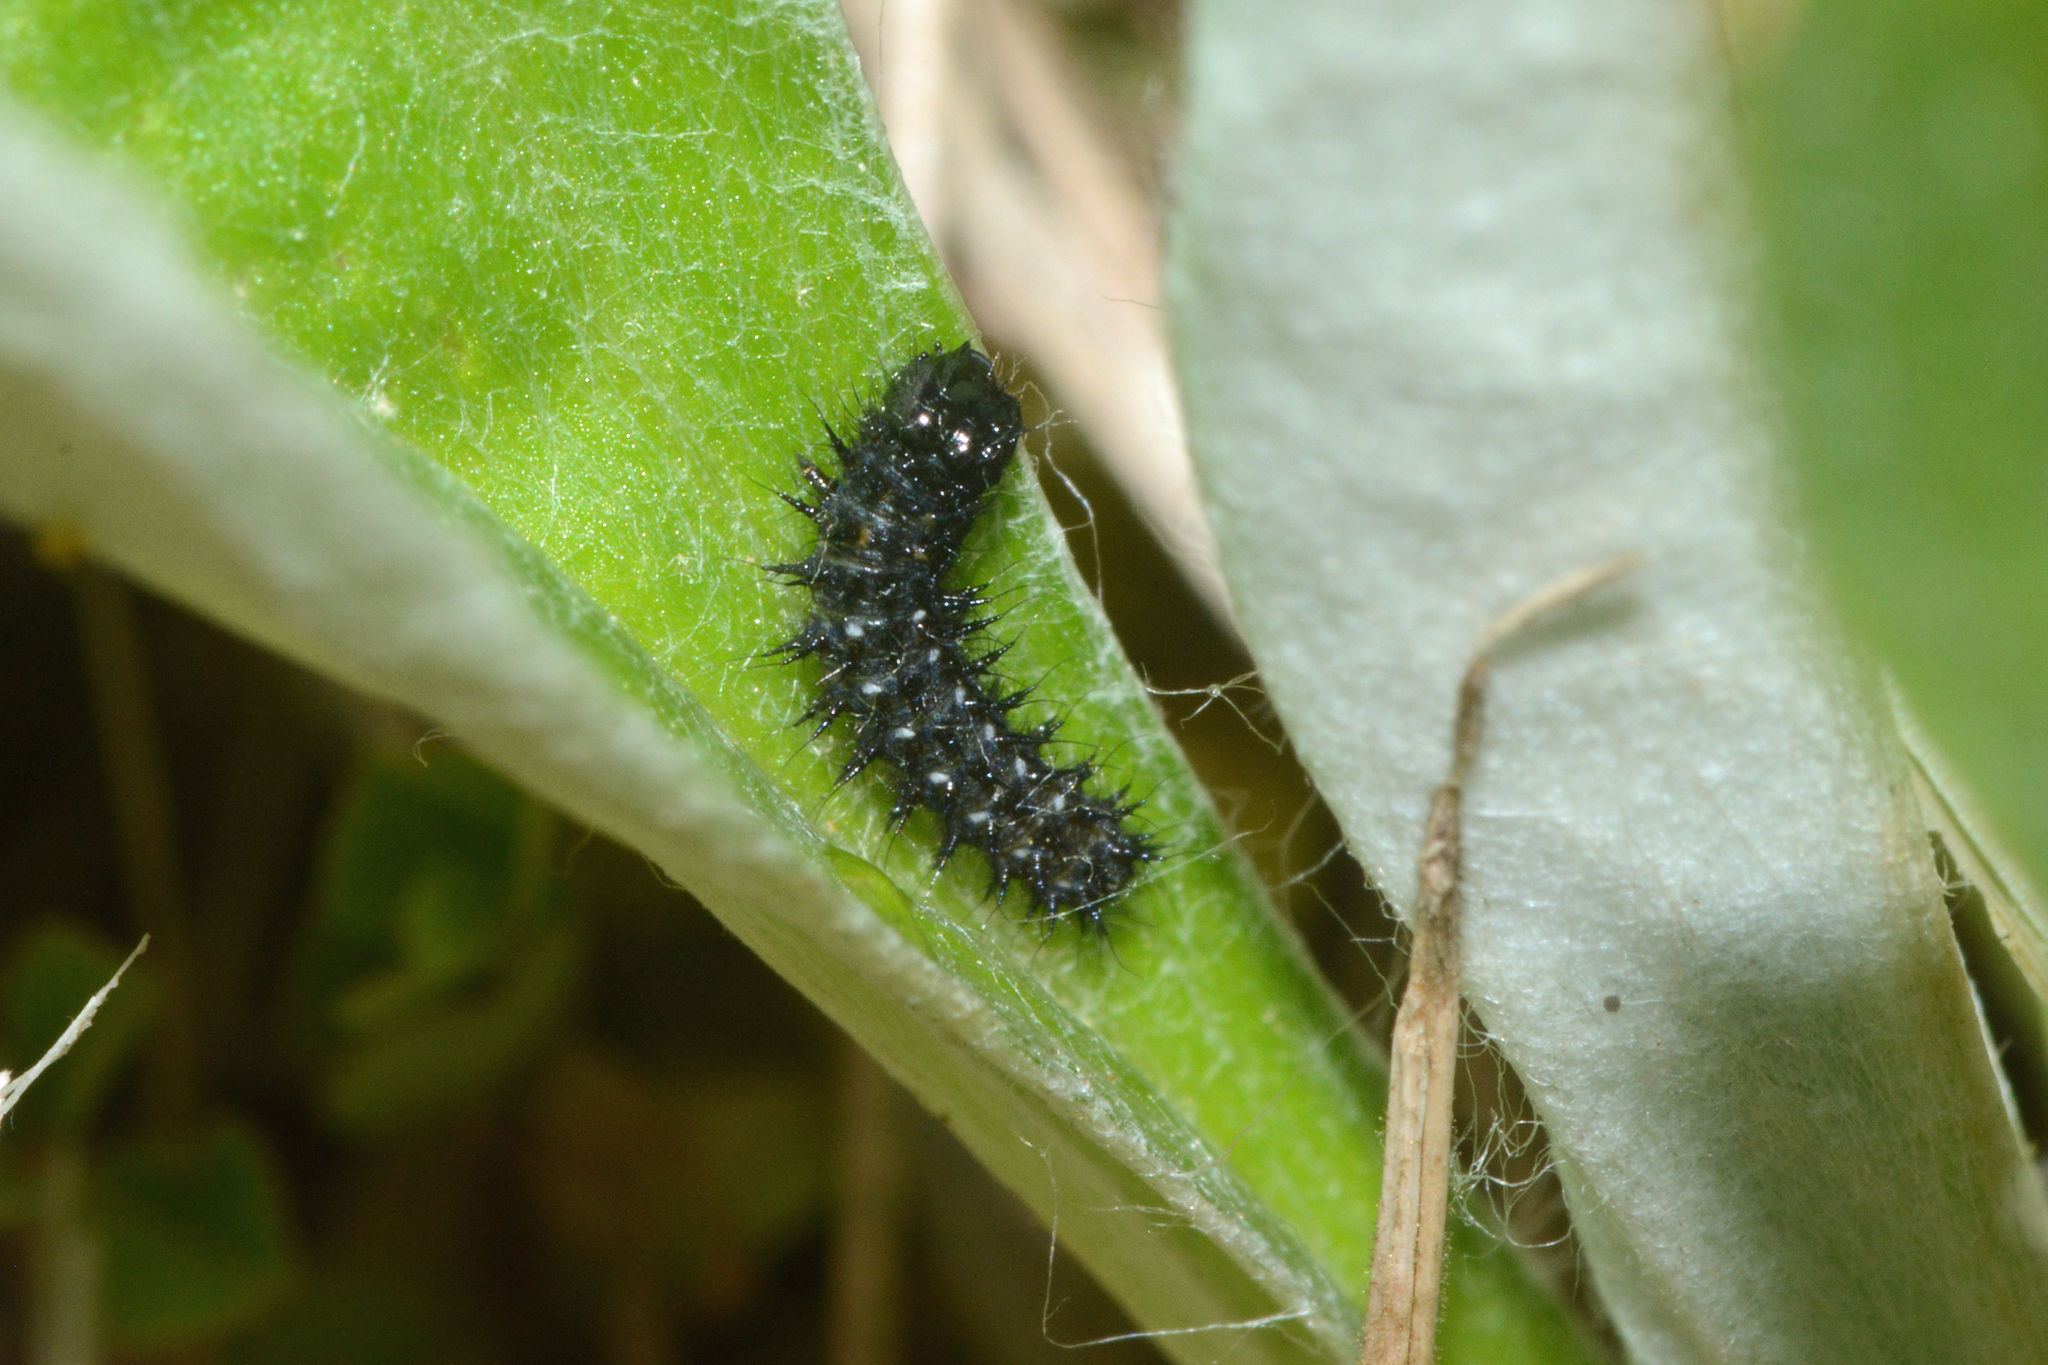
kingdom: Animalia
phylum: Arthropoda
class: Insecta
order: Lepidoptera
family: Nymphalidae
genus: Vanessa
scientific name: Vanessa virginiensis
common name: American lady
